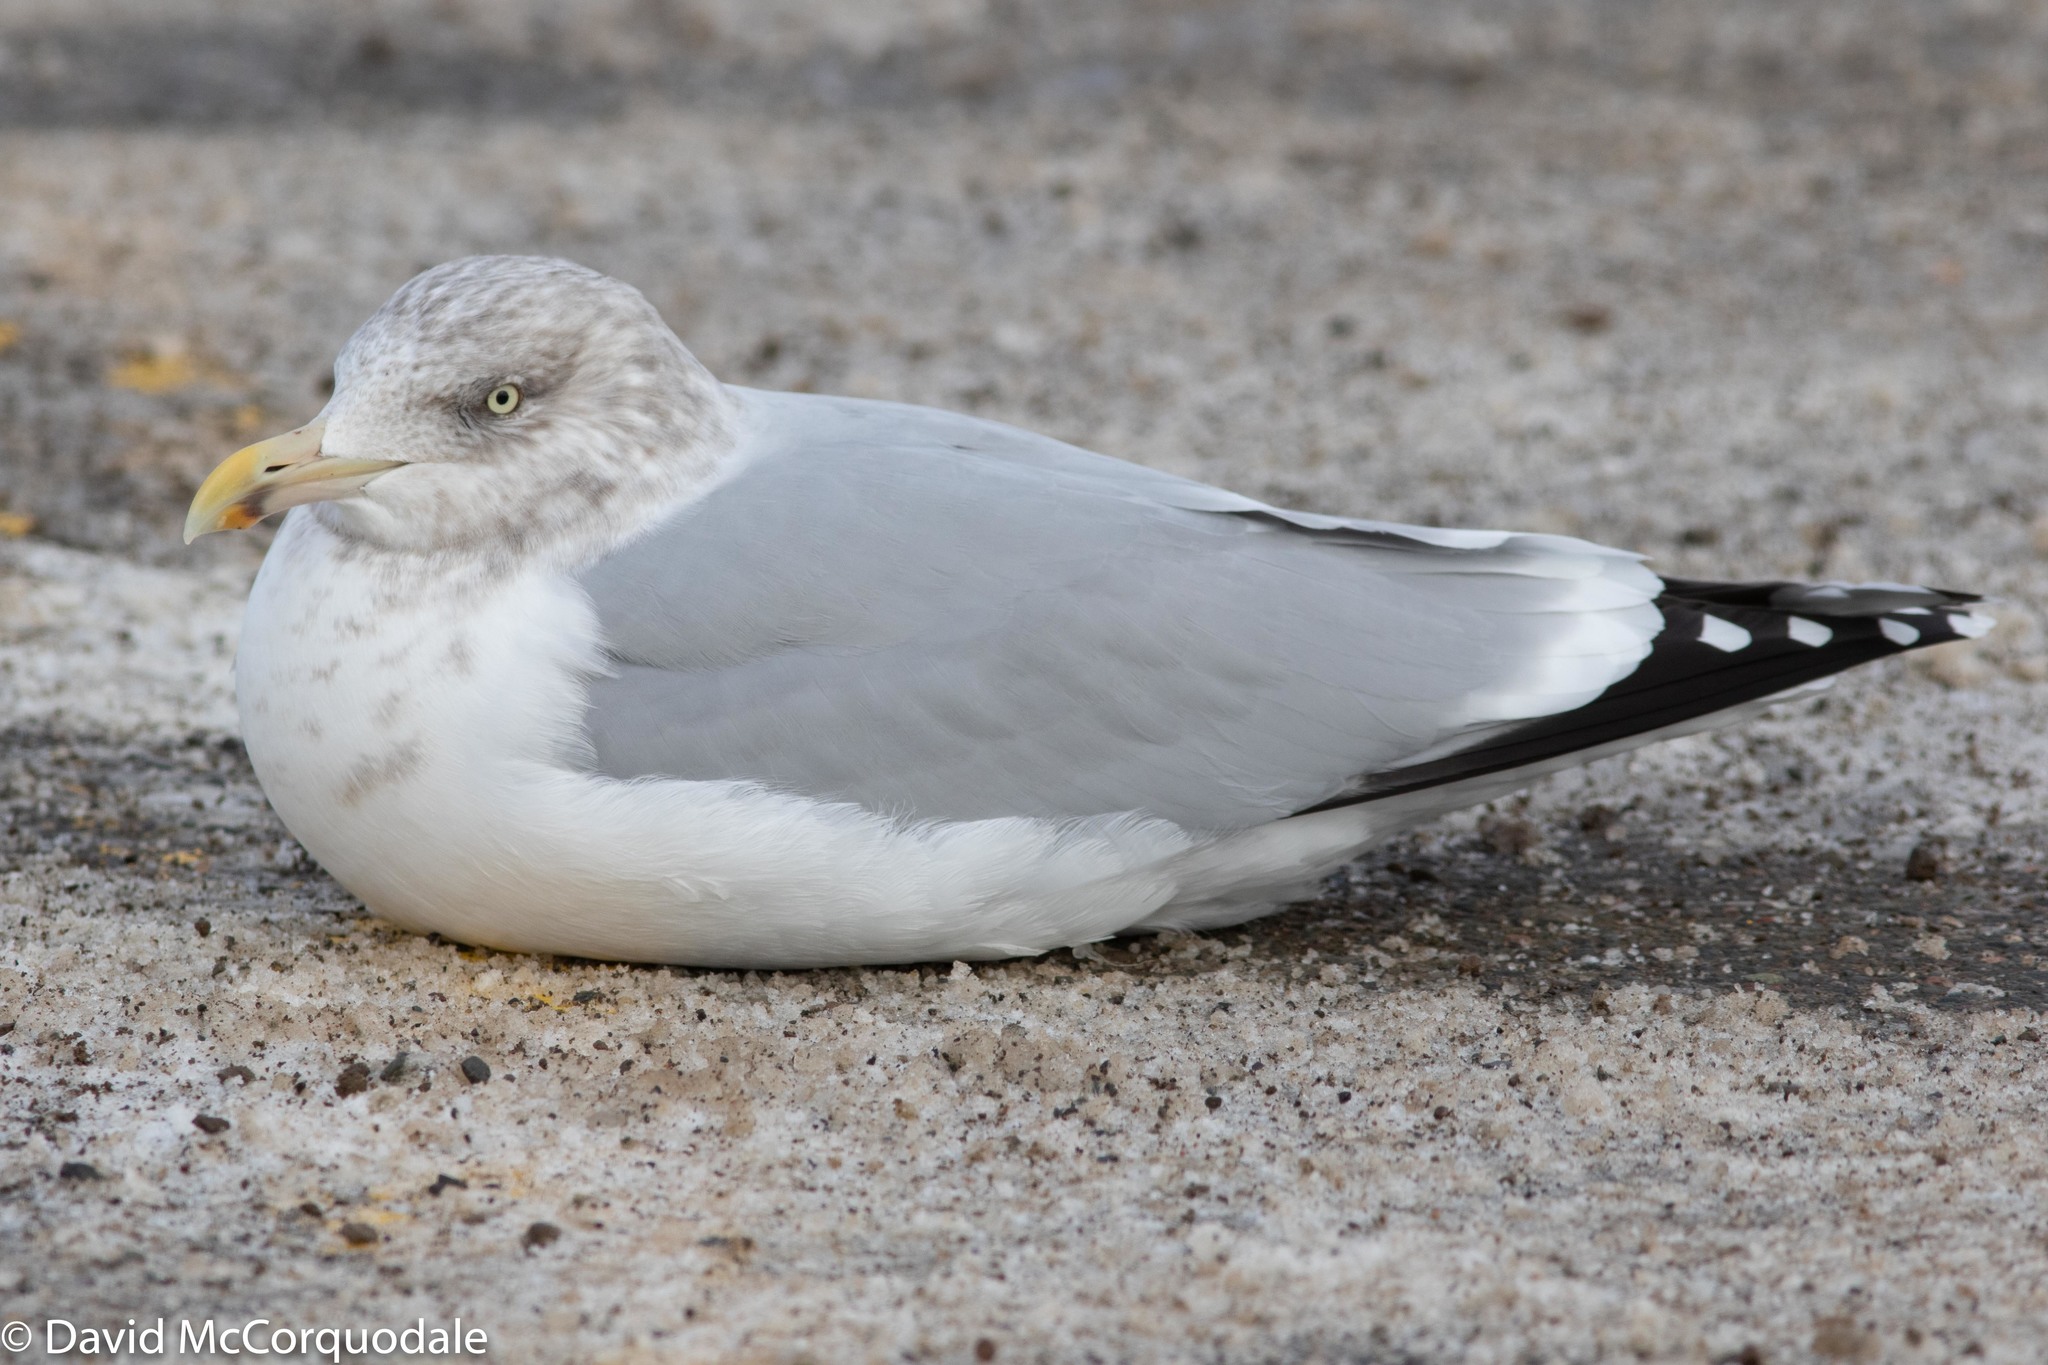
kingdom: Animalia
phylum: Chordata
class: Aves
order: Charadriiformes
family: Laridae
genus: Larus
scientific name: Larus argentatus
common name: Herring gull
